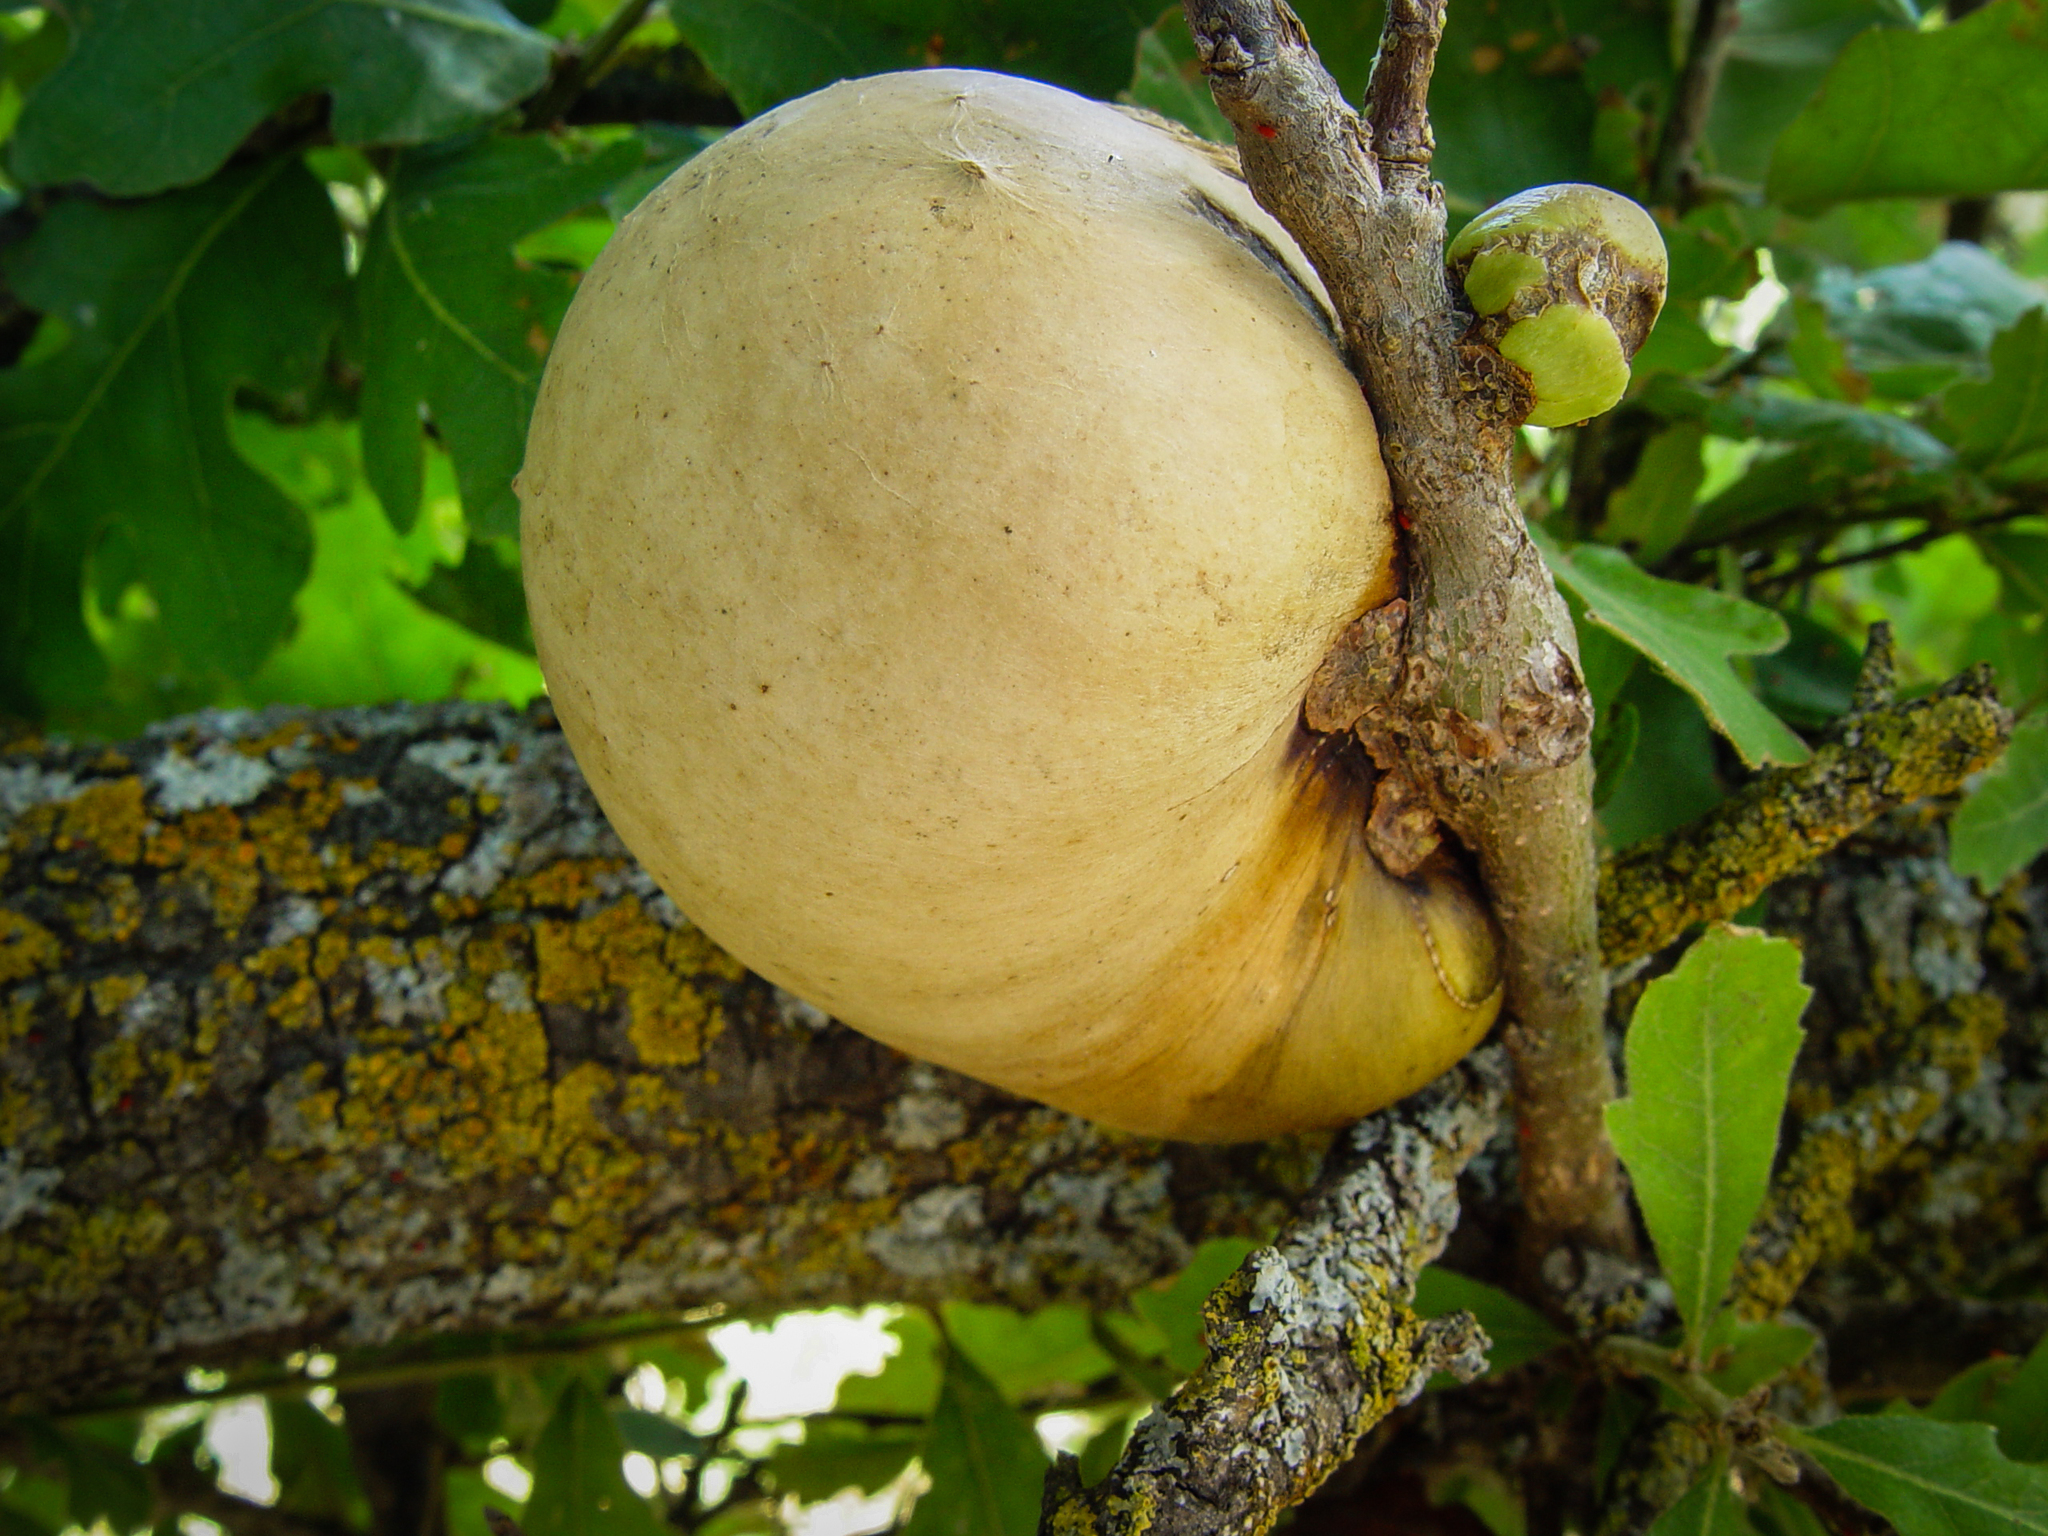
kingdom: Animalia
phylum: Arthropoda
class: Insecta
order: Hymenoptera
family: Cynipidae
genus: Andricus
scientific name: Andricus quercuscalifornicus
